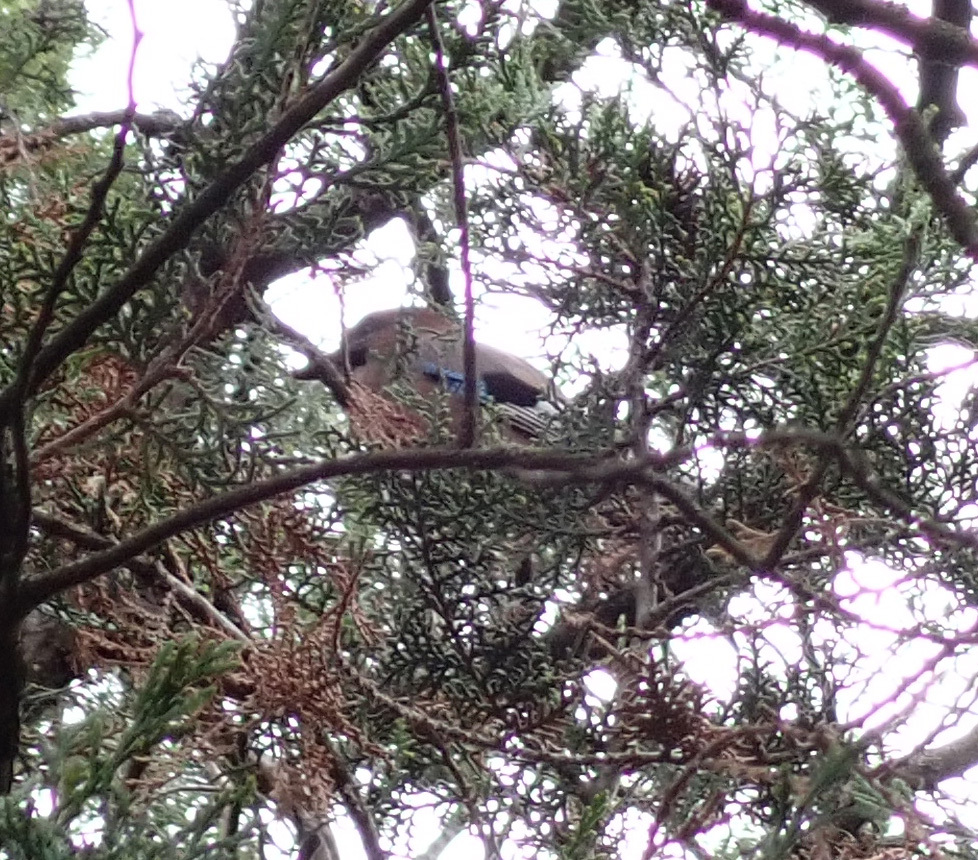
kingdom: Animalia
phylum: Chordata
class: Aves
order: Passeriformes
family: Corvidae
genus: Garrulus
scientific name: Garrulus glandarius
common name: Eurasian jay
